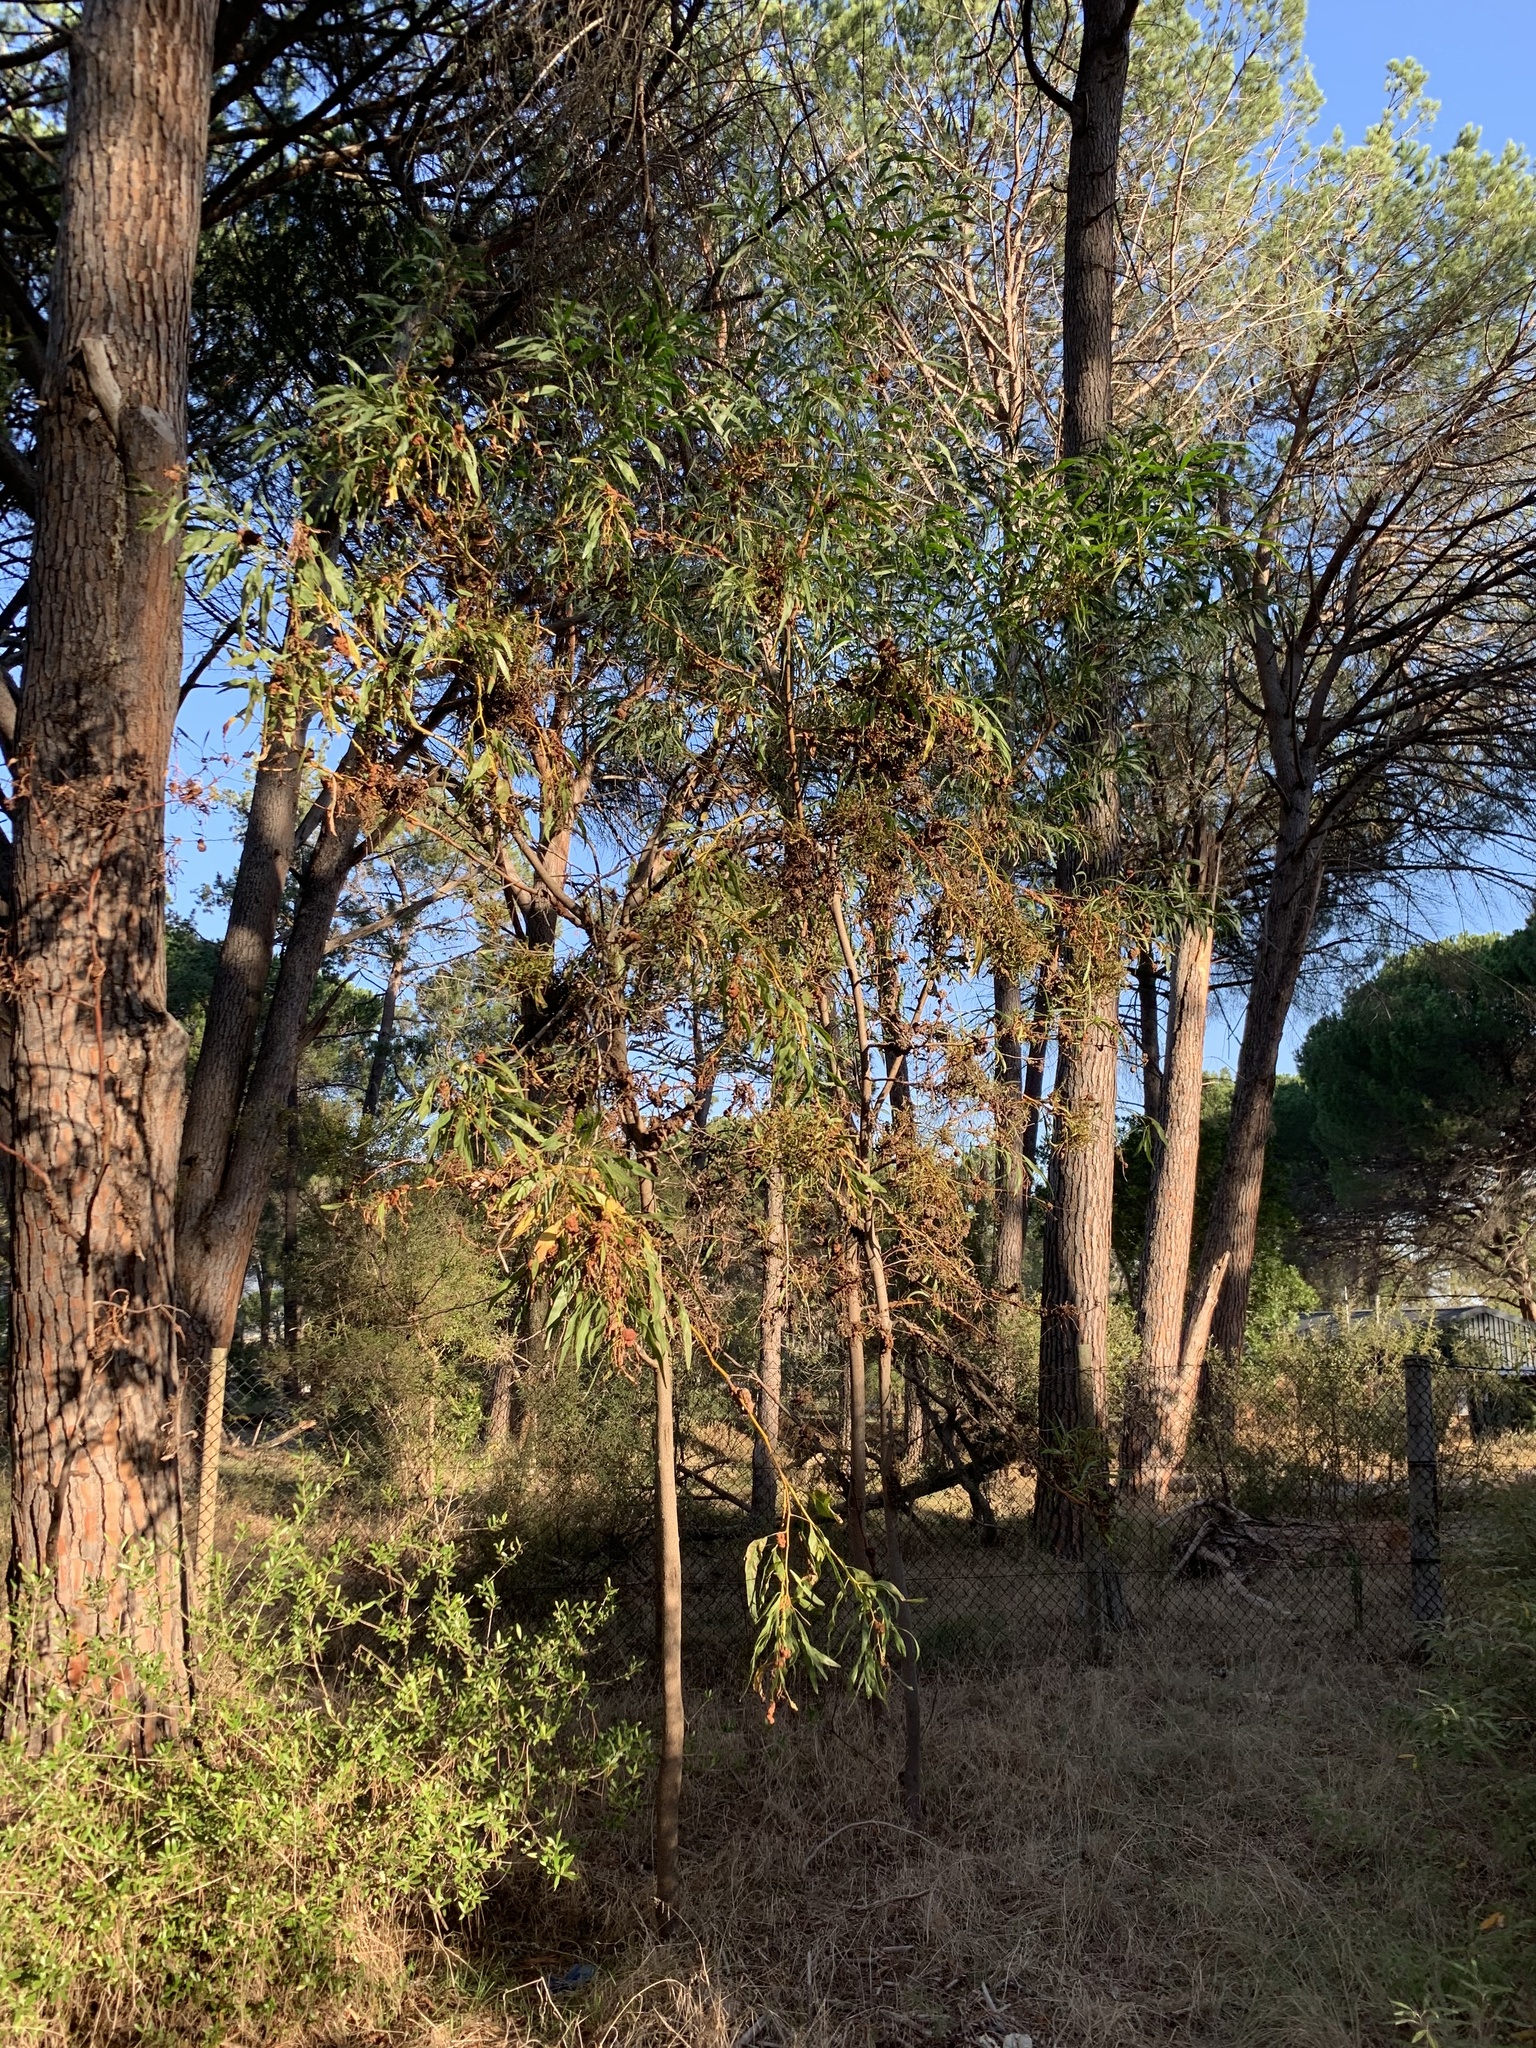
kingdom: Plantae
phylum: Tracheophyta
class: Magnoliopsida
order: Fabales
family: Fabaceae
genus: Acacia
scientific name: Acacia saligna
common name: Orange wattle
